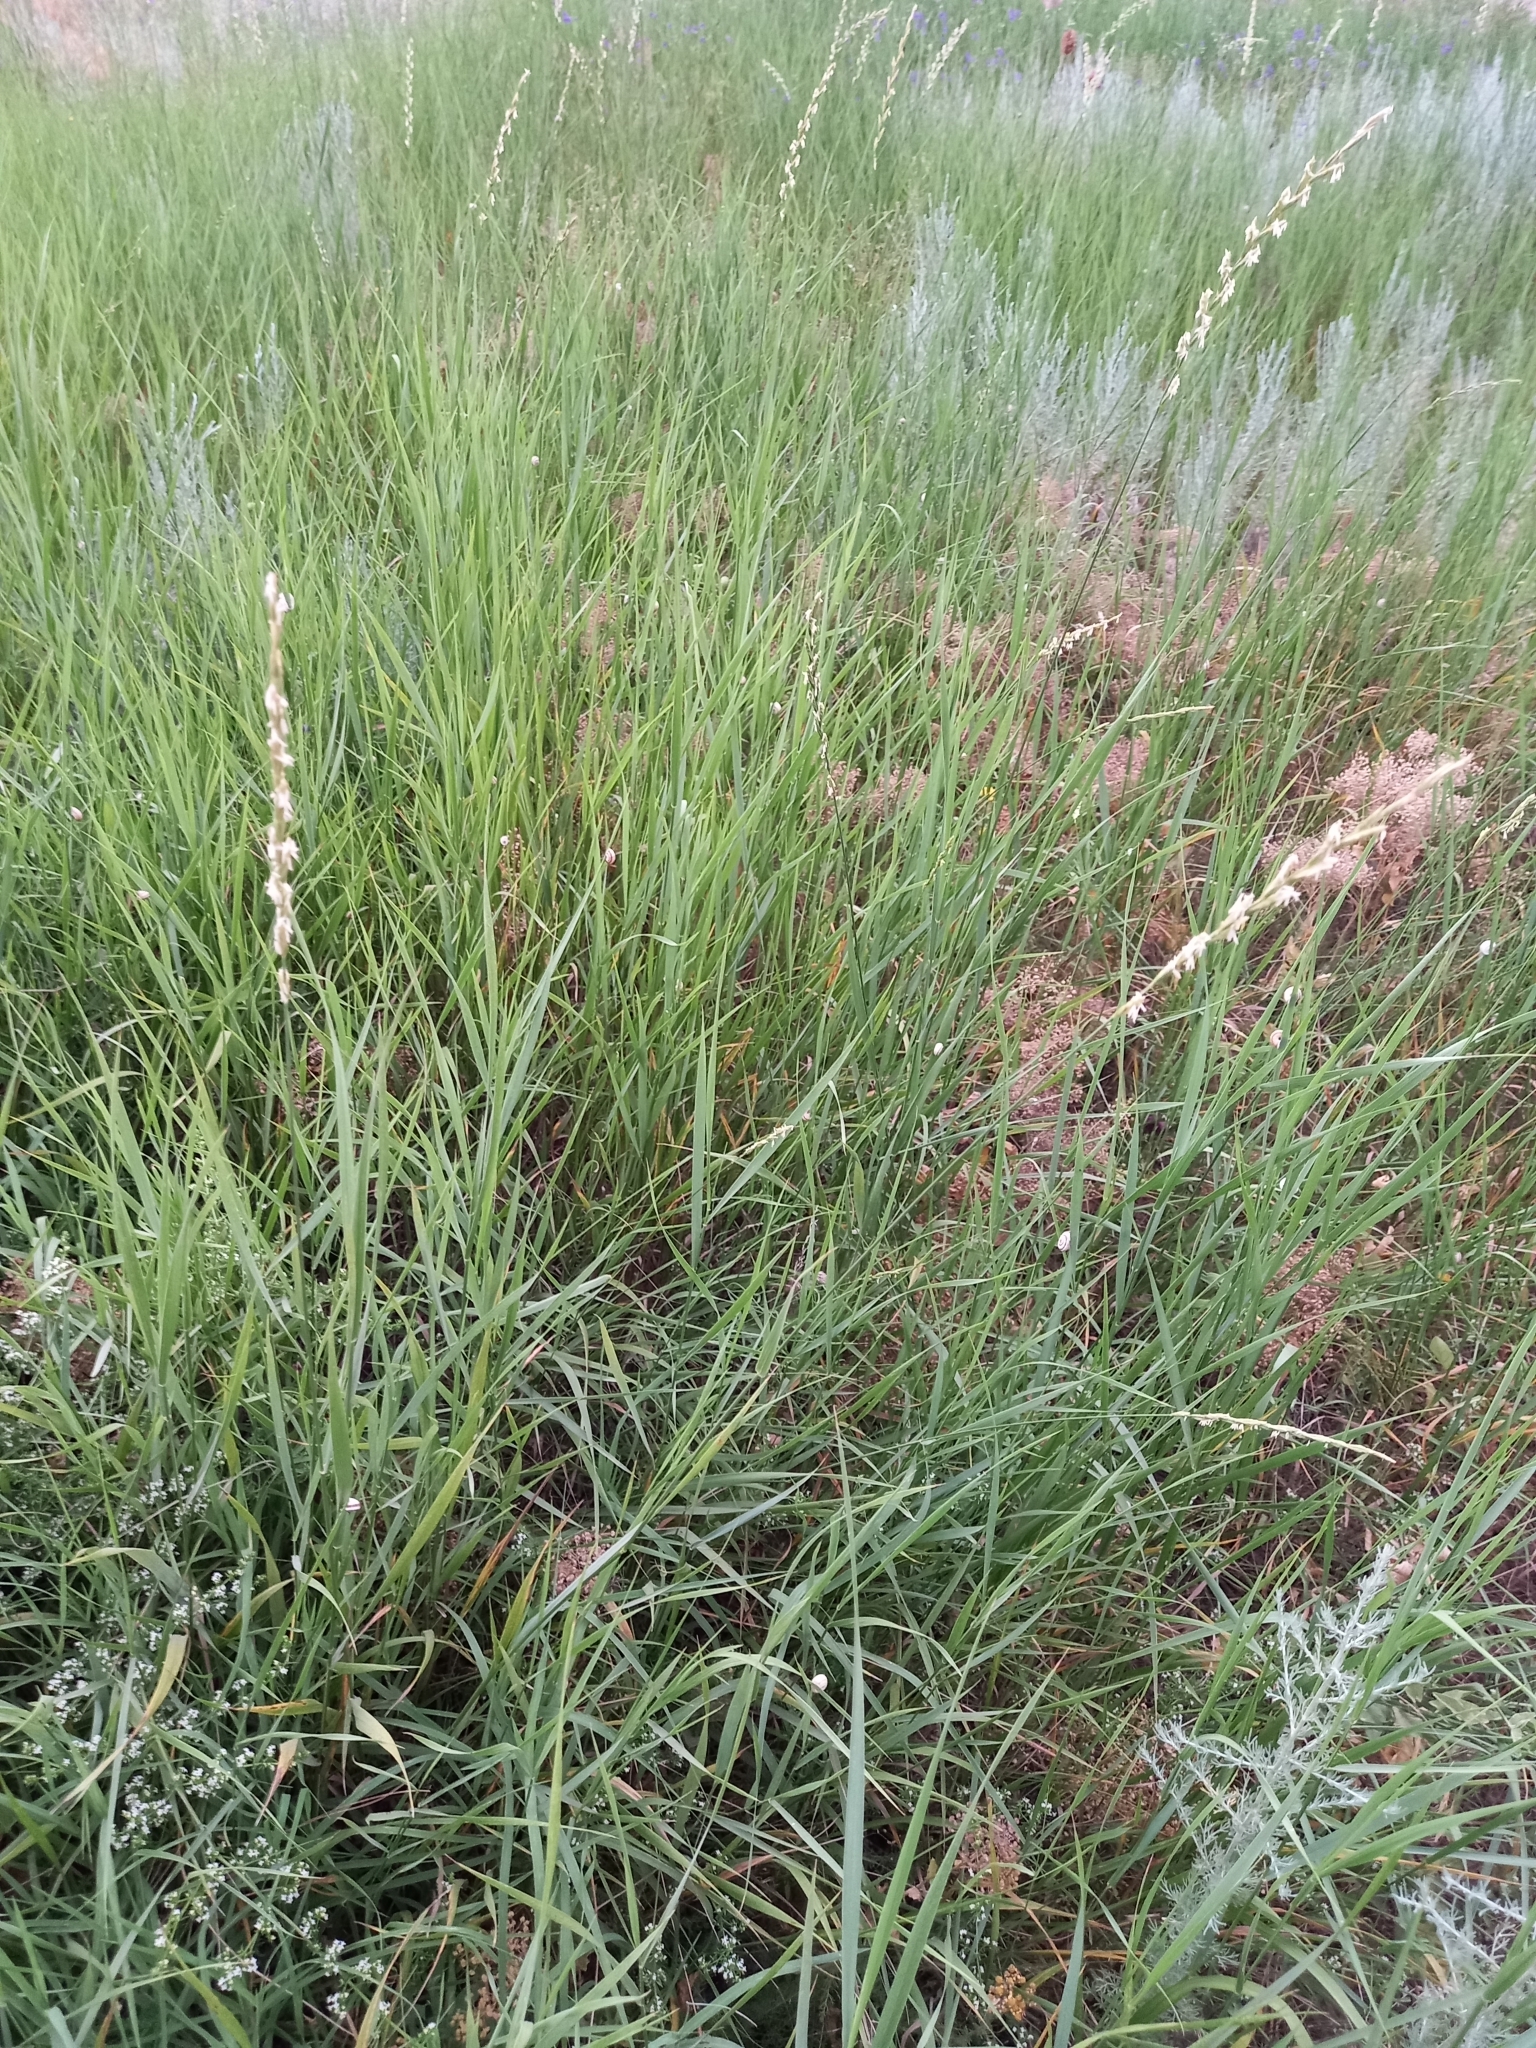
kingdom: Plantae
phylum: Tracheophyta
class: Liliopsida
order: Poales
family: Poaceae
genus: Elymus
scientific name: Elymus repens
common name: Quackgrass
